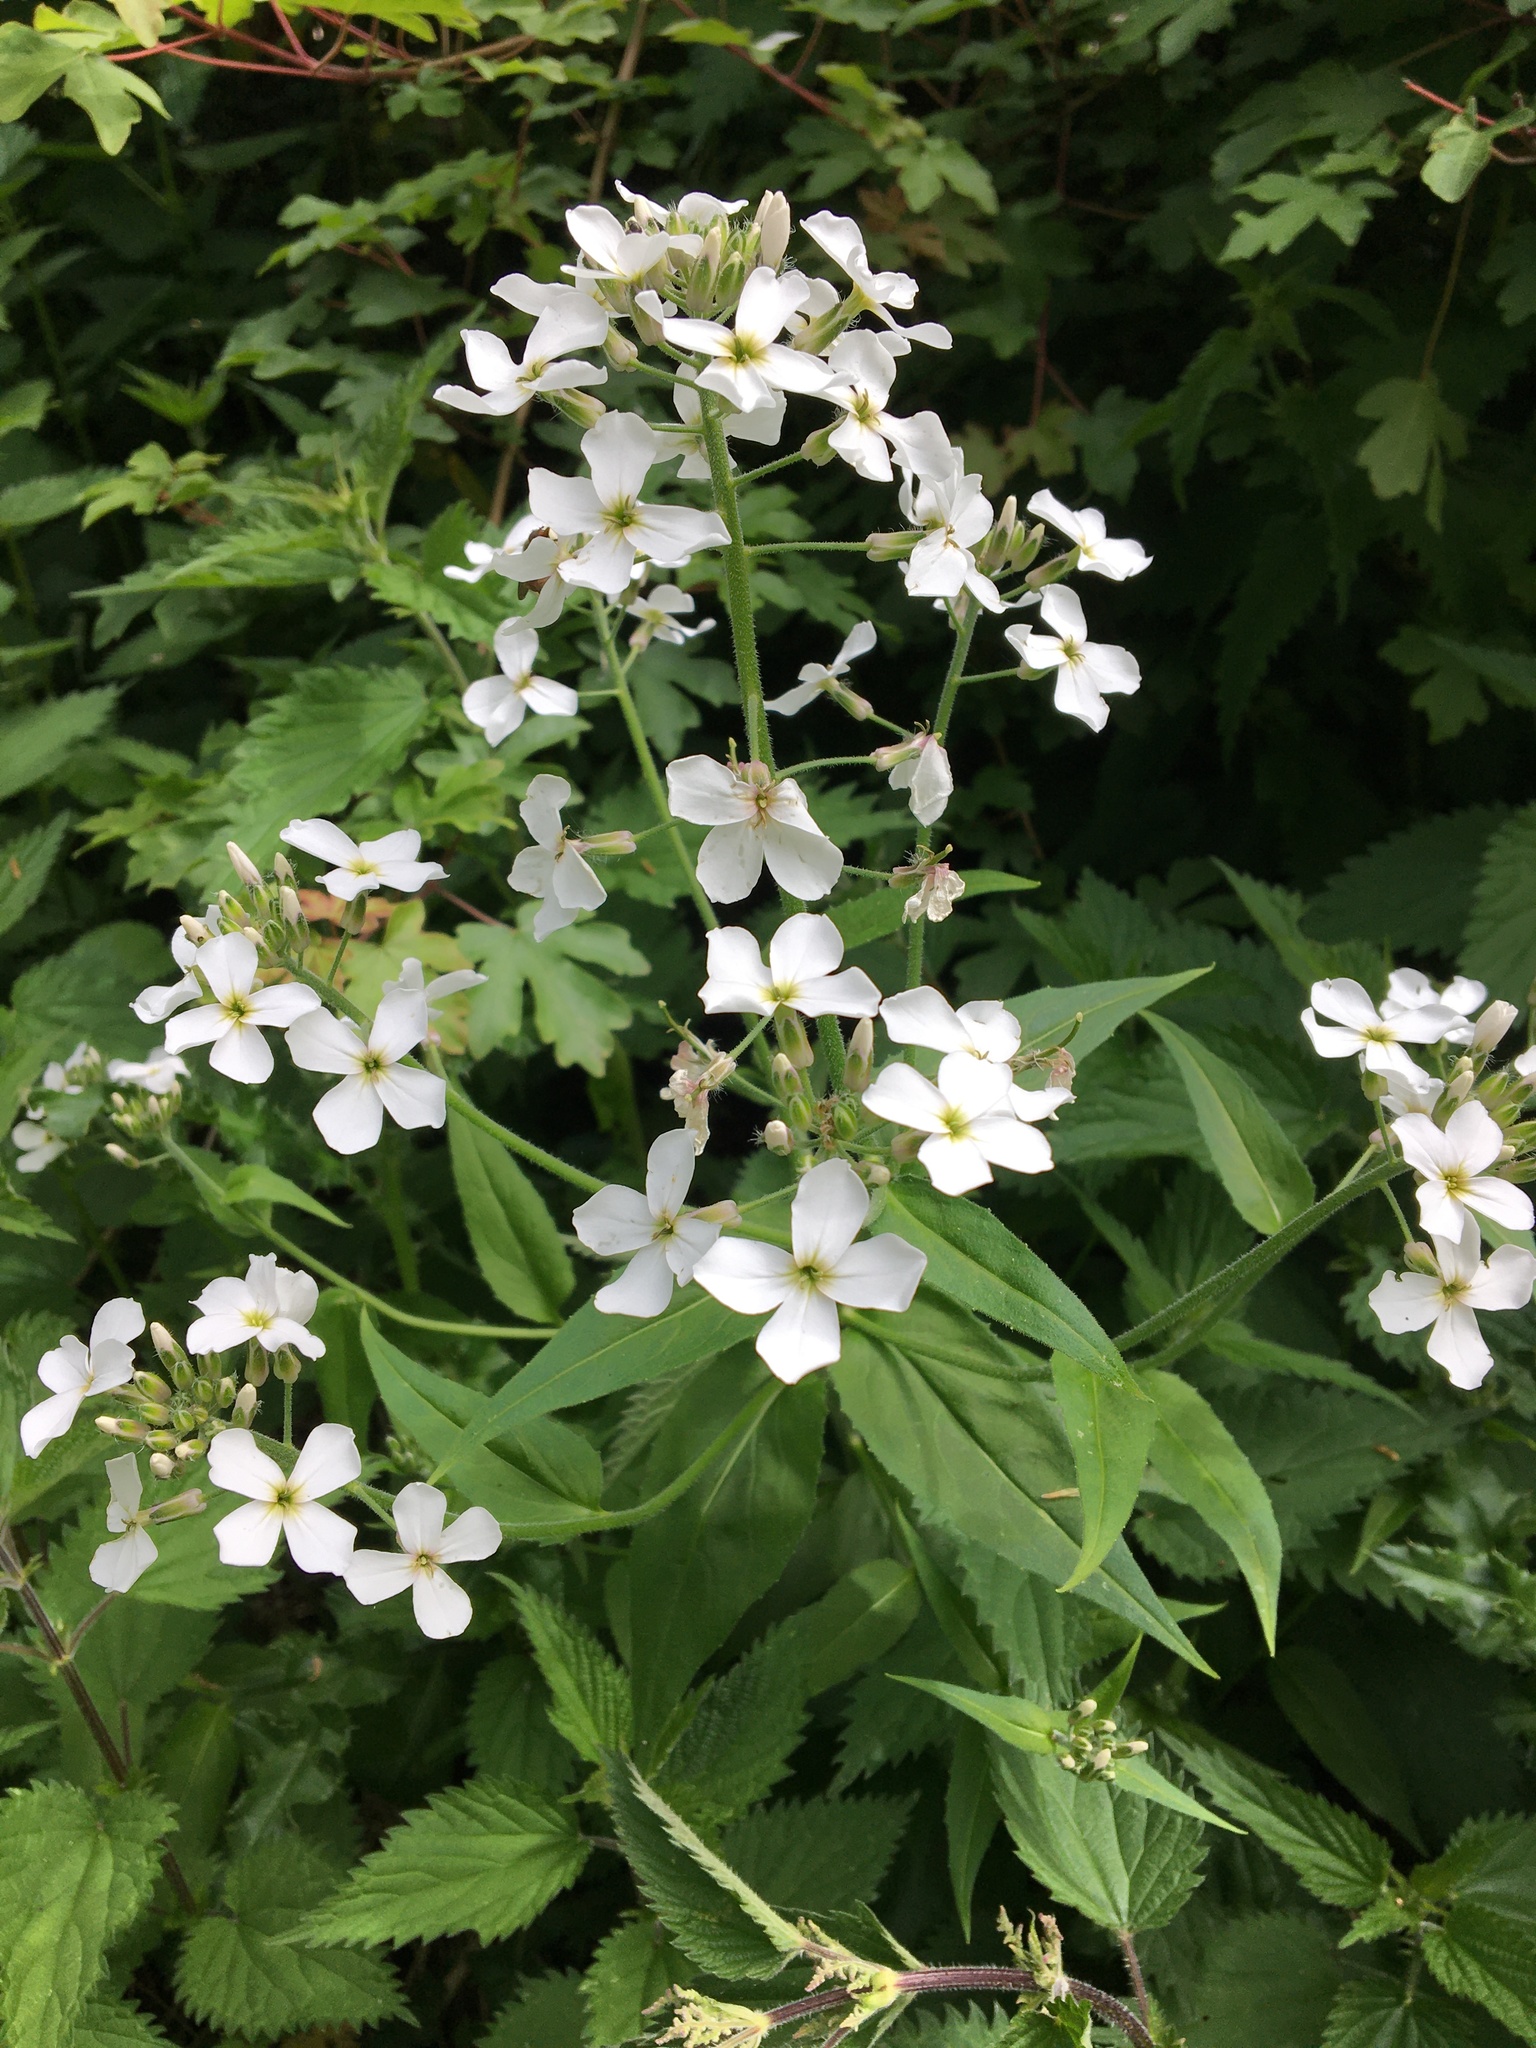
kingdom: Plantae
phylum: Tracheophyta
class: Magnoliopsida
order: Brassicales
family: Brassicaceae
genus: Hesperis
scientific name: Hesperis matronalis
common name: Dame's-violet
